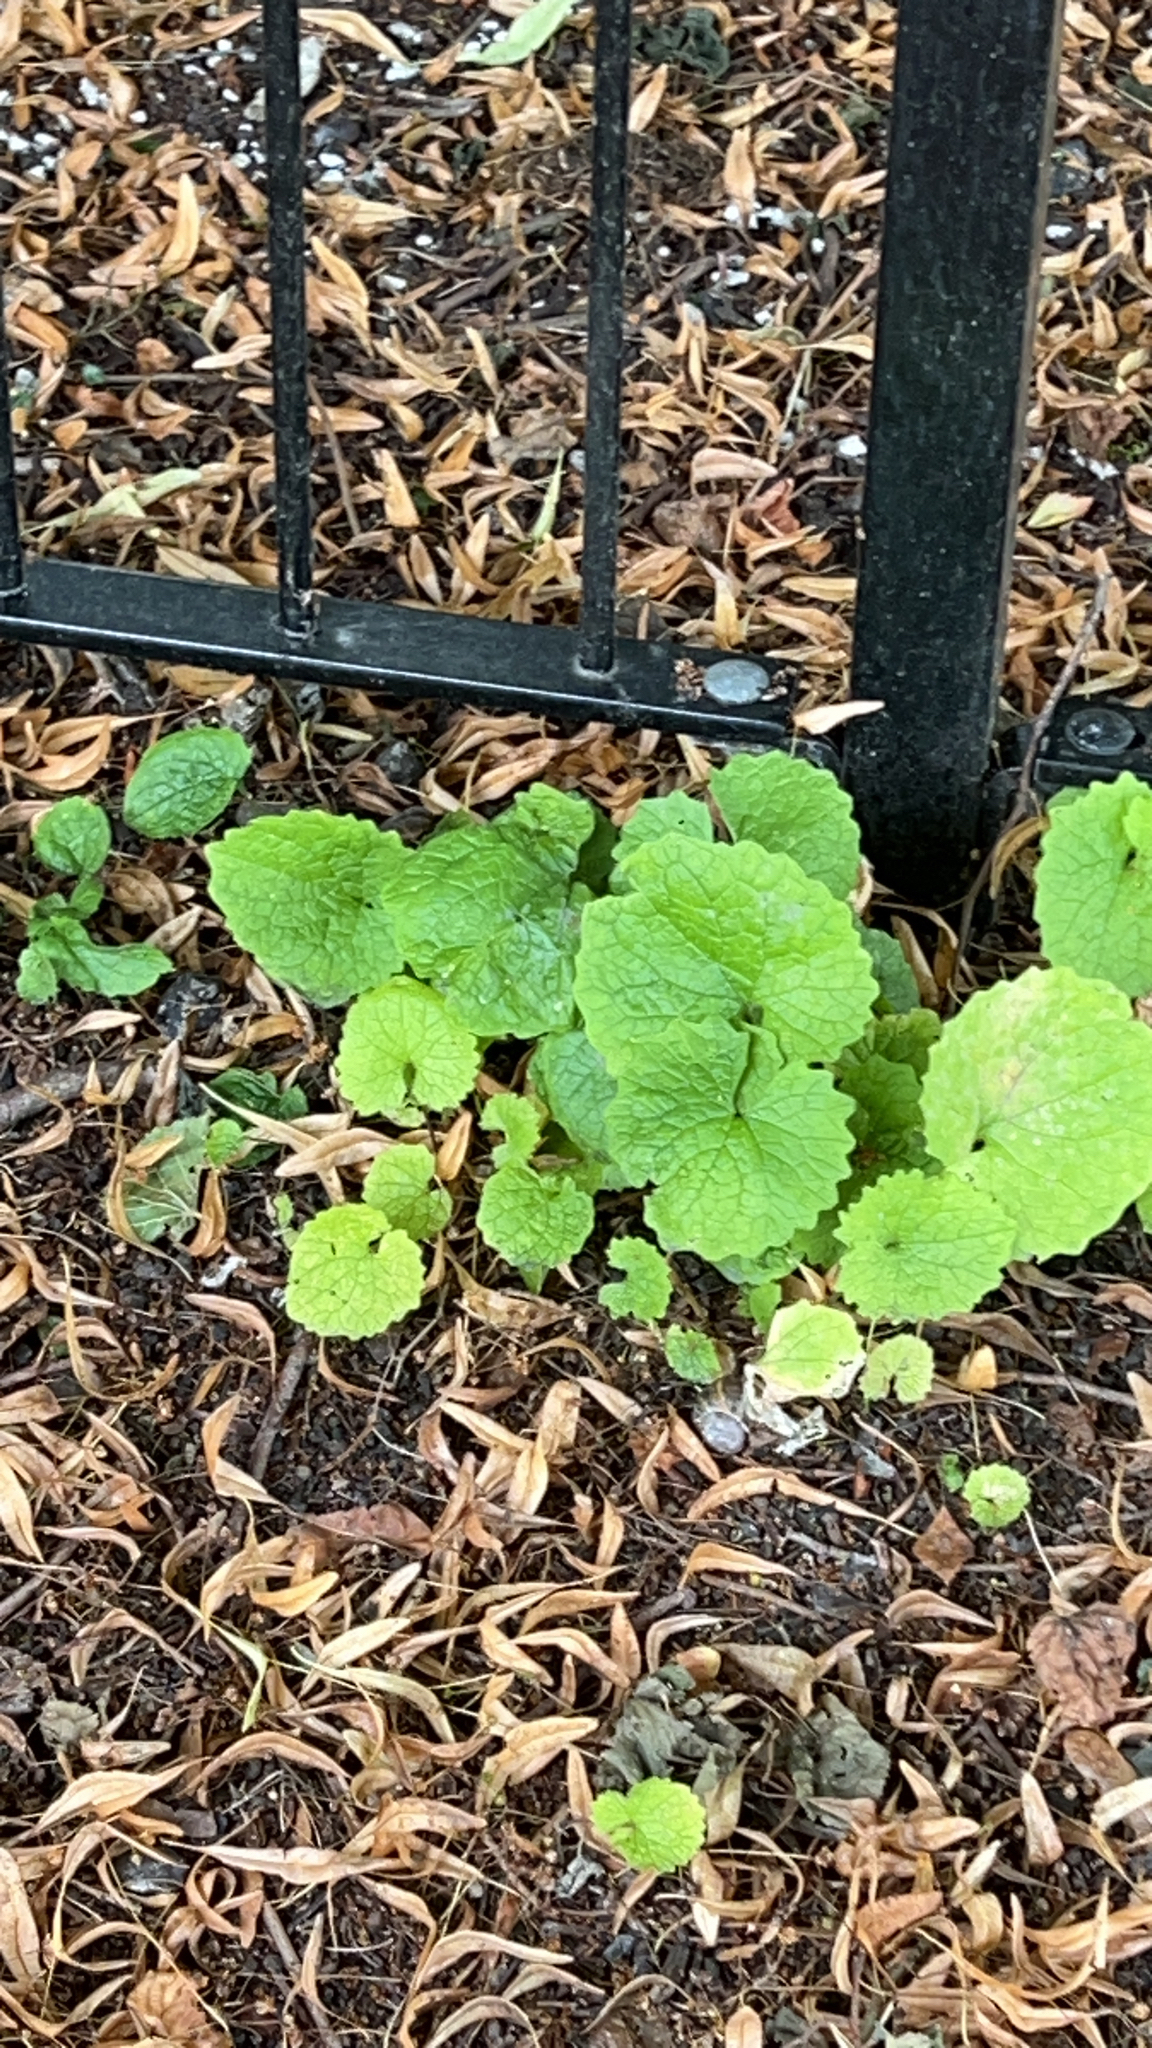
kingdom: Plantae
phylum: Tracheophyta
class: Magnoliopsida
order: Brassicales
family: Brassicaceae
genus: Alliaria
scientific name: Alliaria petiolata
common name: Garlic mustard
